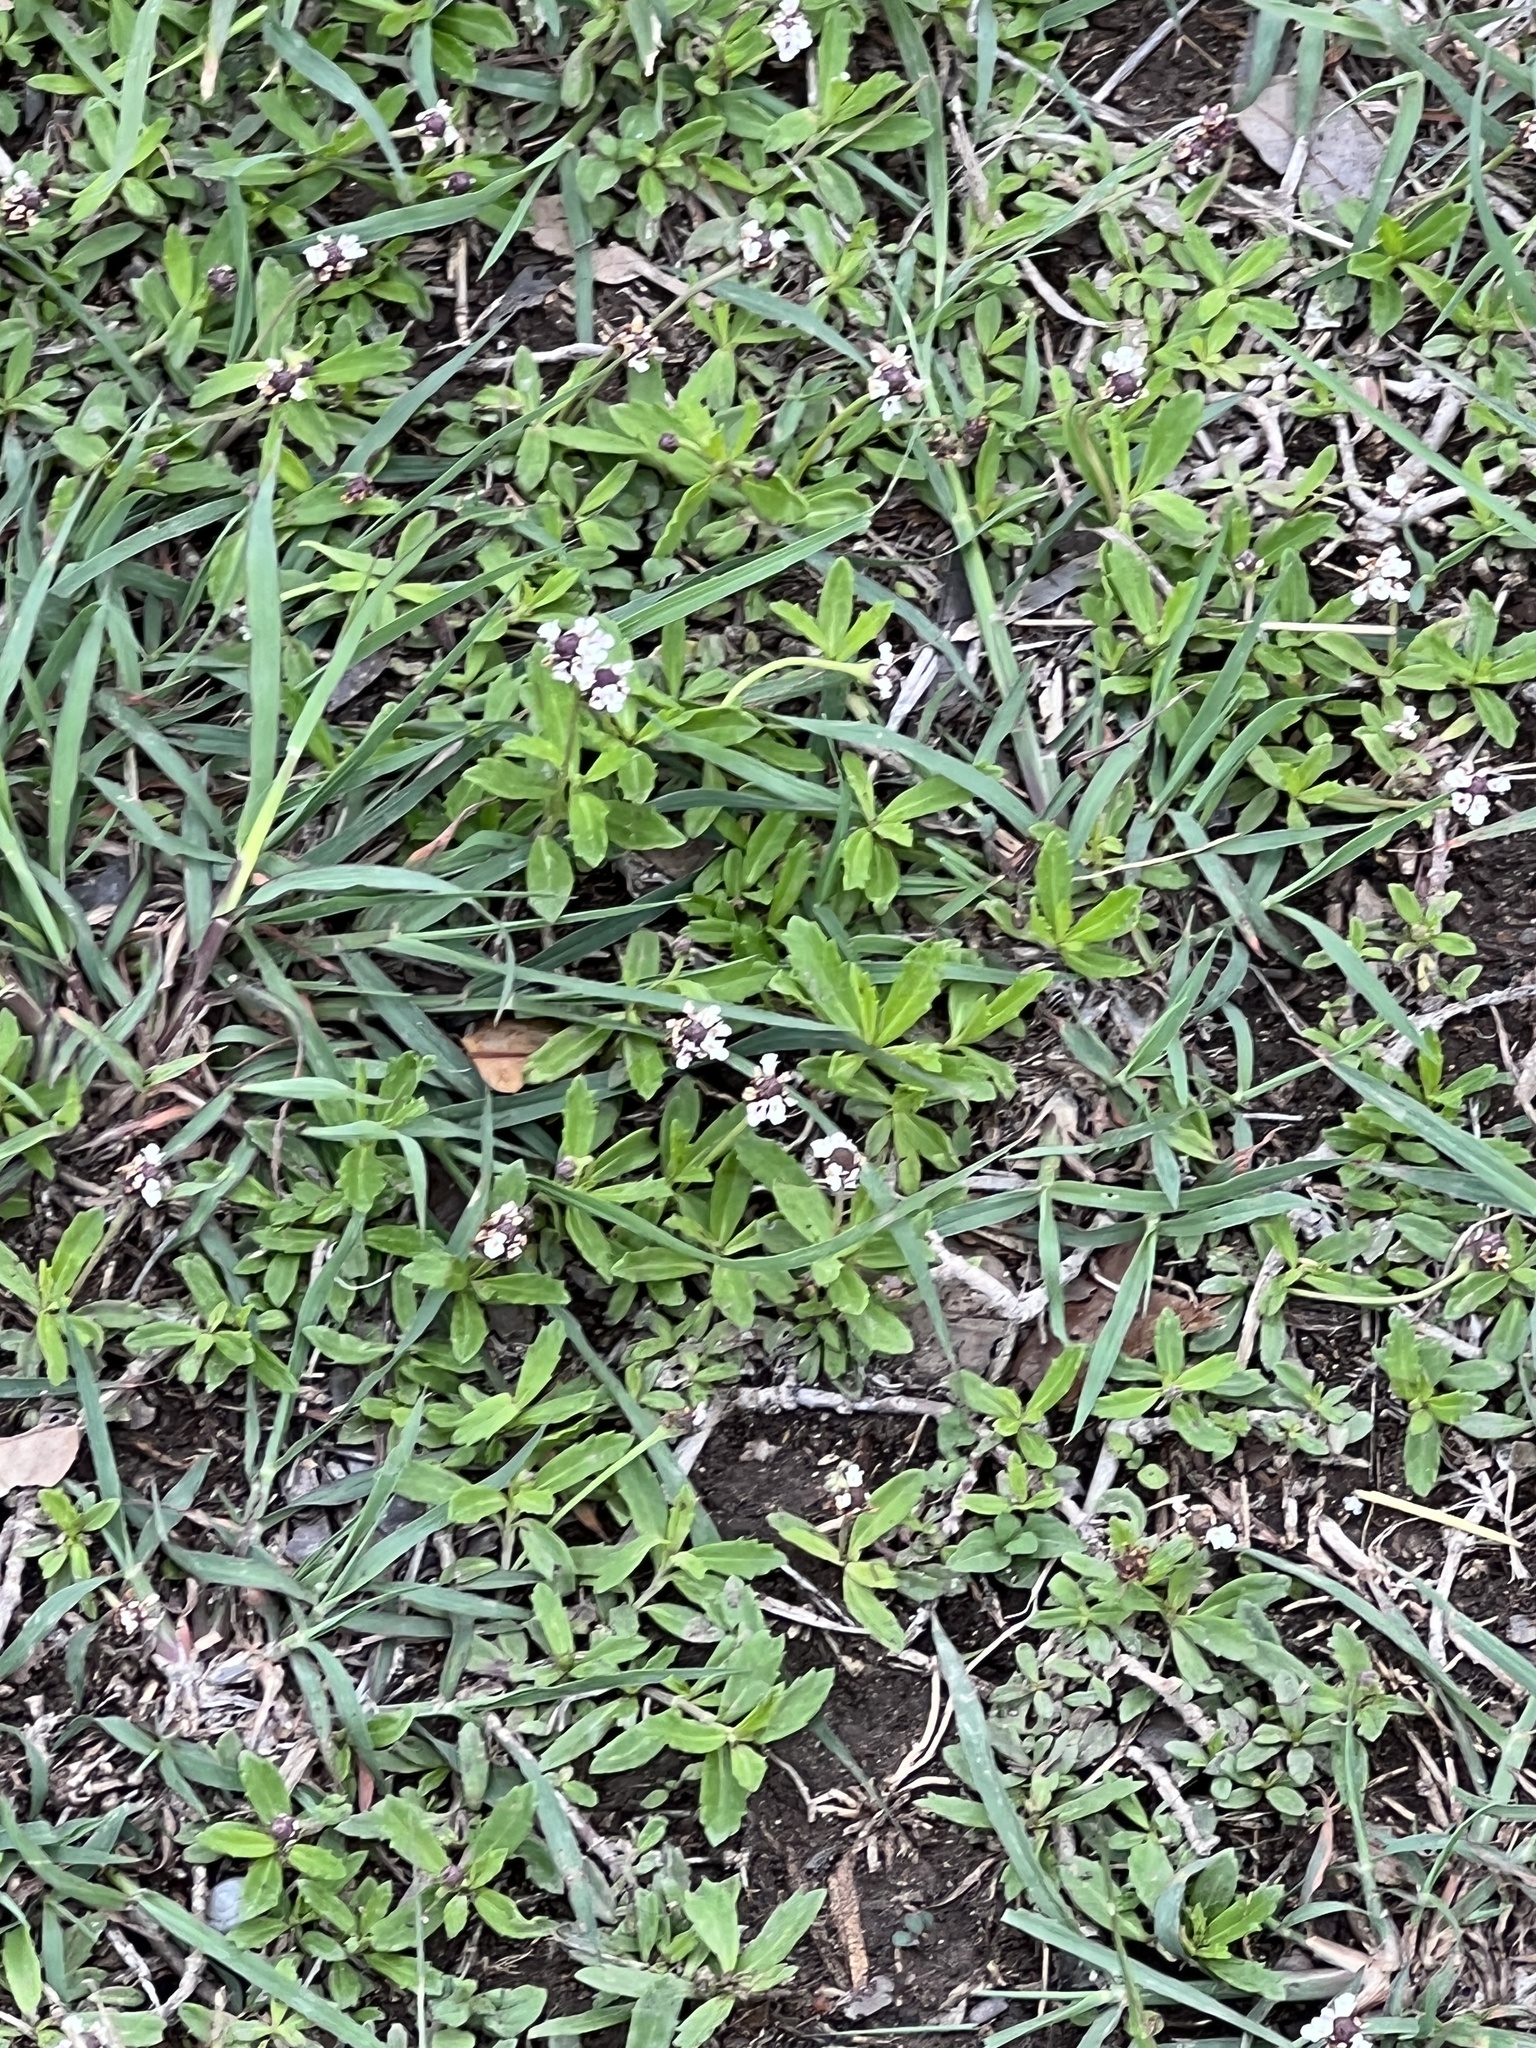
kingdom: Plantae
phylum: Tracheophyta
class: Magnoliopsida
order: Lamiales
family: Verbenaceae
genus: Phyla
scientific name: Phyla nodiflora
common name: Frogfruit
